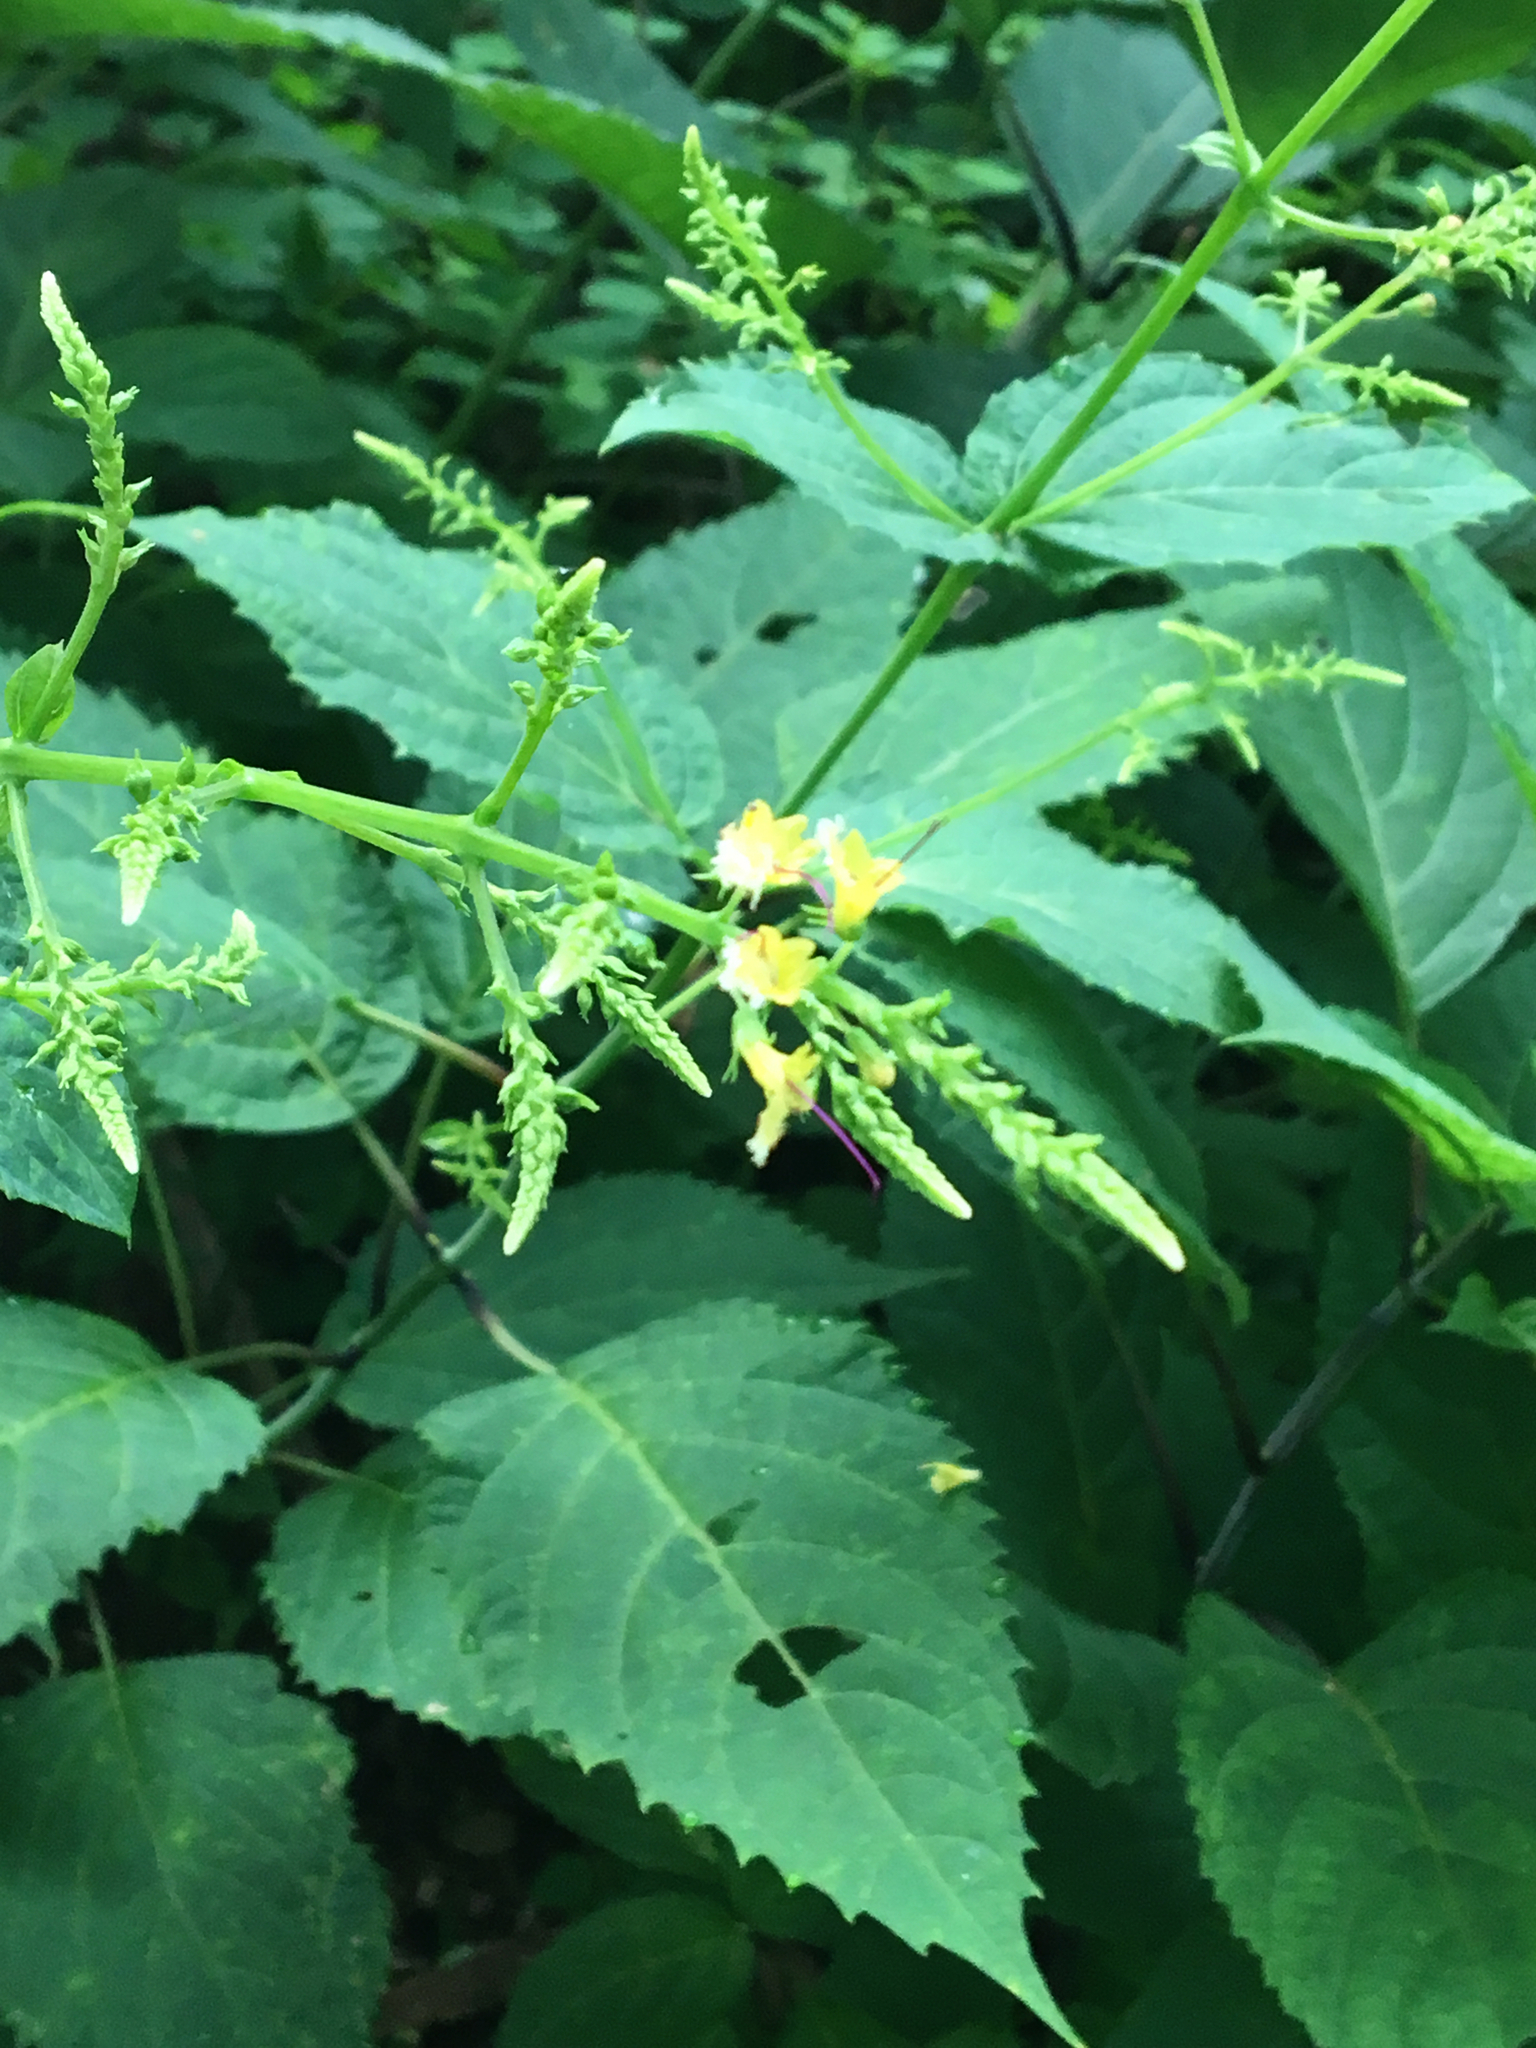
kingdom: Plantae
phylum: Tracheophyta
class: Magnoliopsida
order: Lamiales
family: Lamiaceae
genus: Collinsonia
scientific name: Collinsonia canadensis
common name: Northern horsebalm
